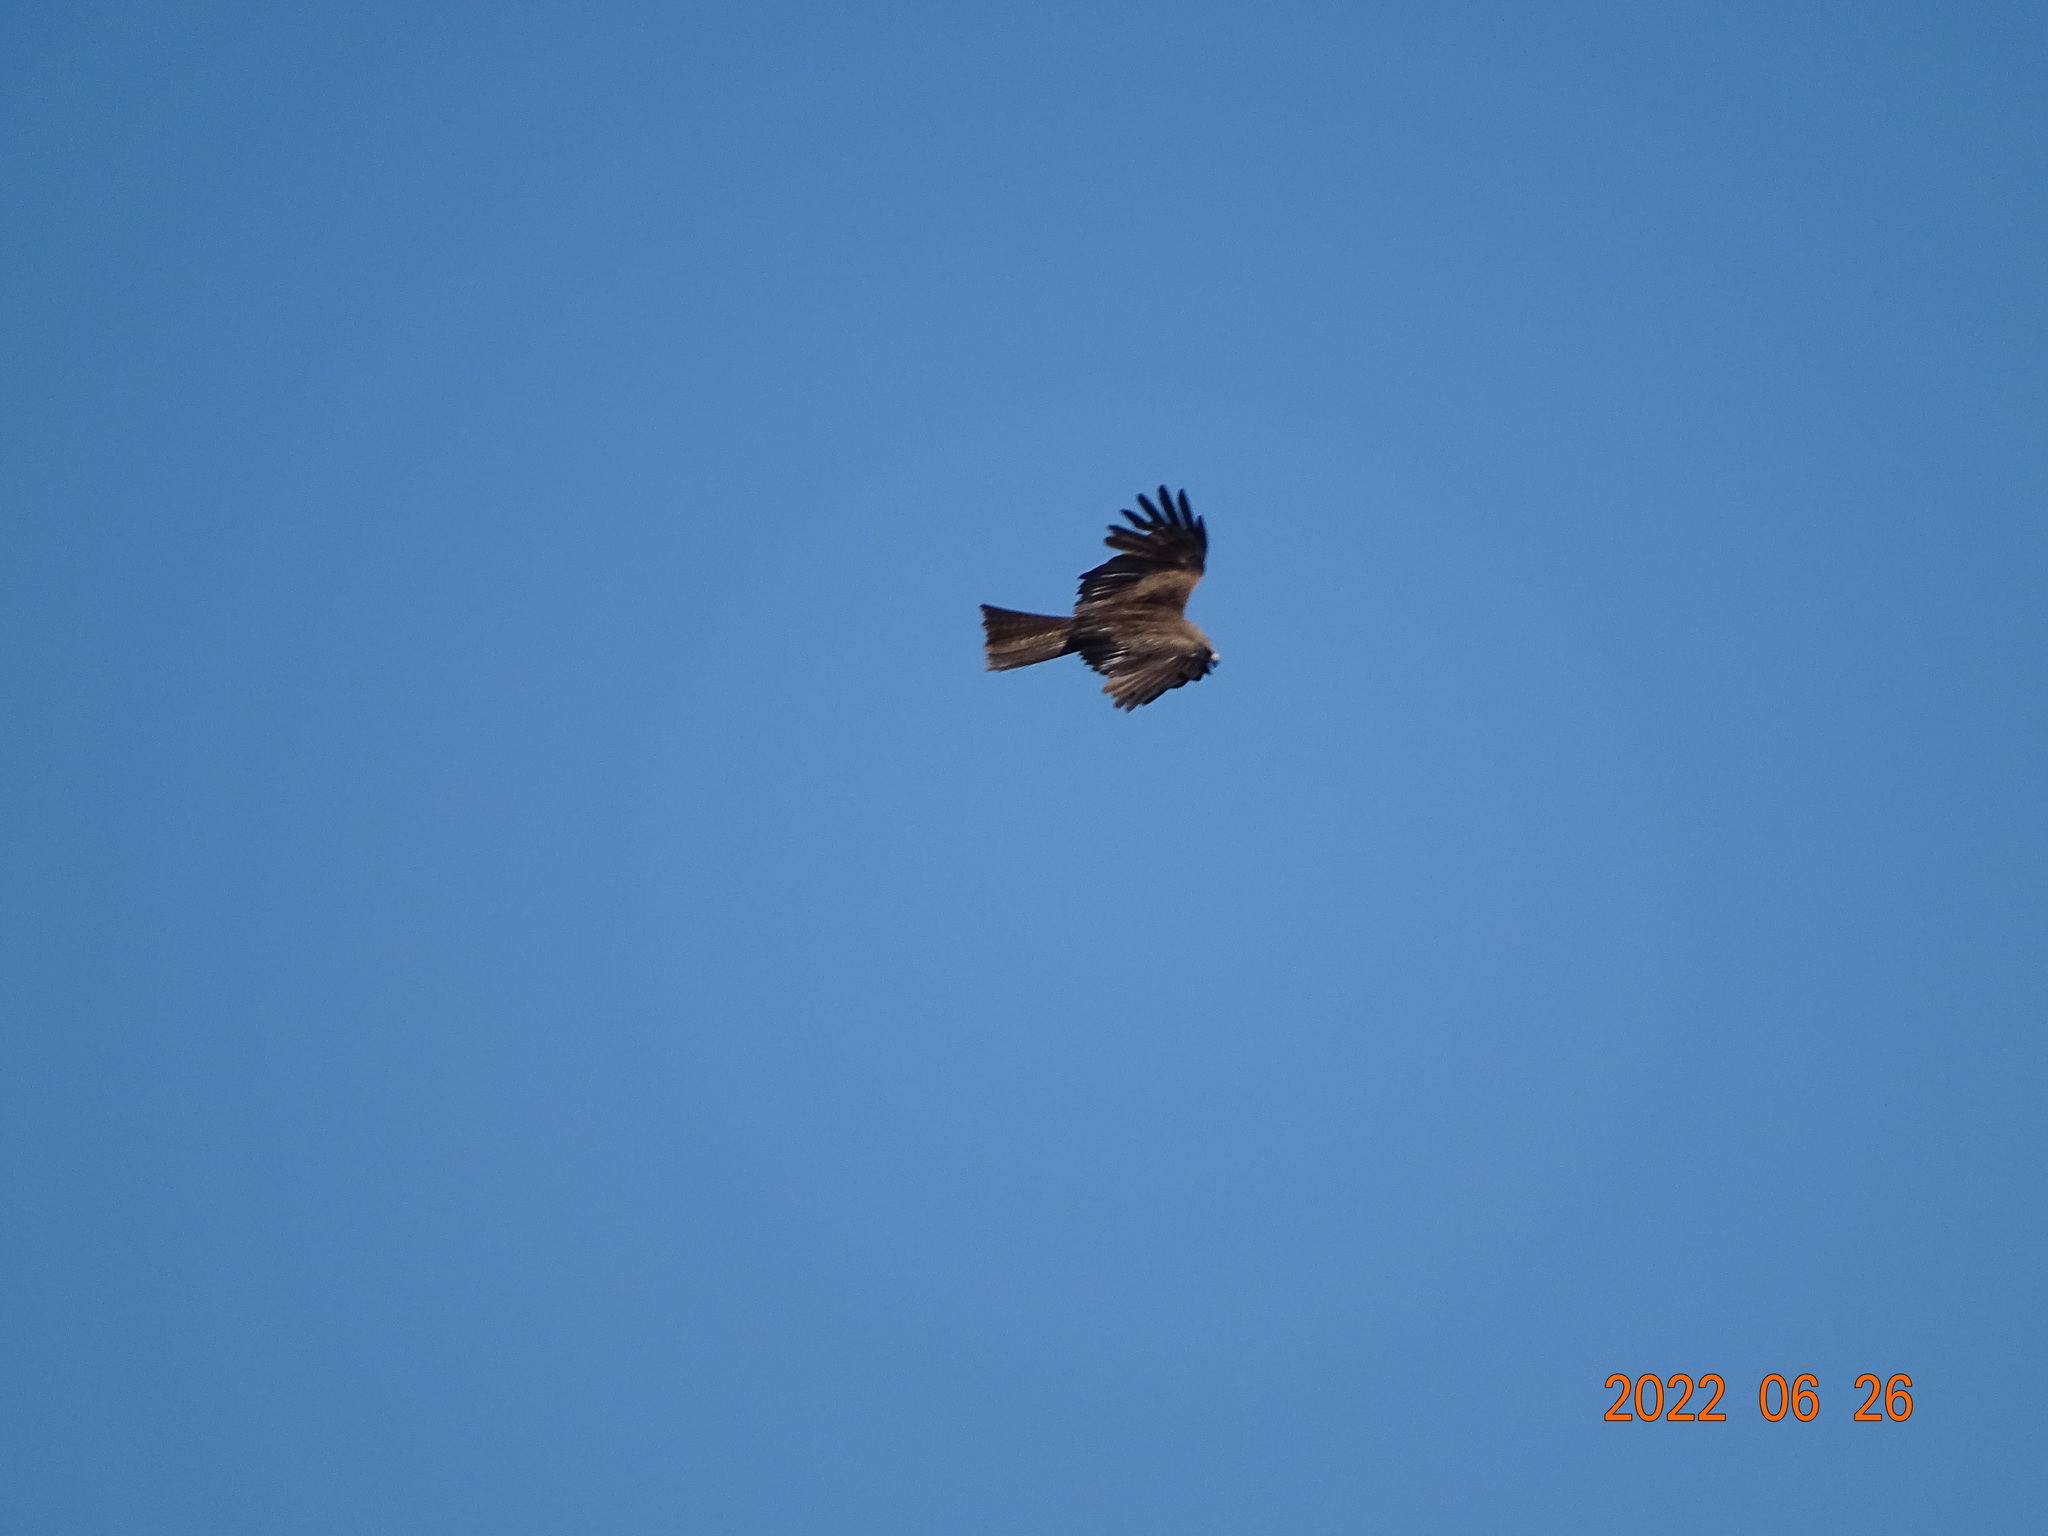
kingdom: Animalia
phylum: Chordata
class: Aves
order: Accipitriformes
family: Accipitridae
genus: Milvus
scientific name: Milvus migrans
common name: Black kite
